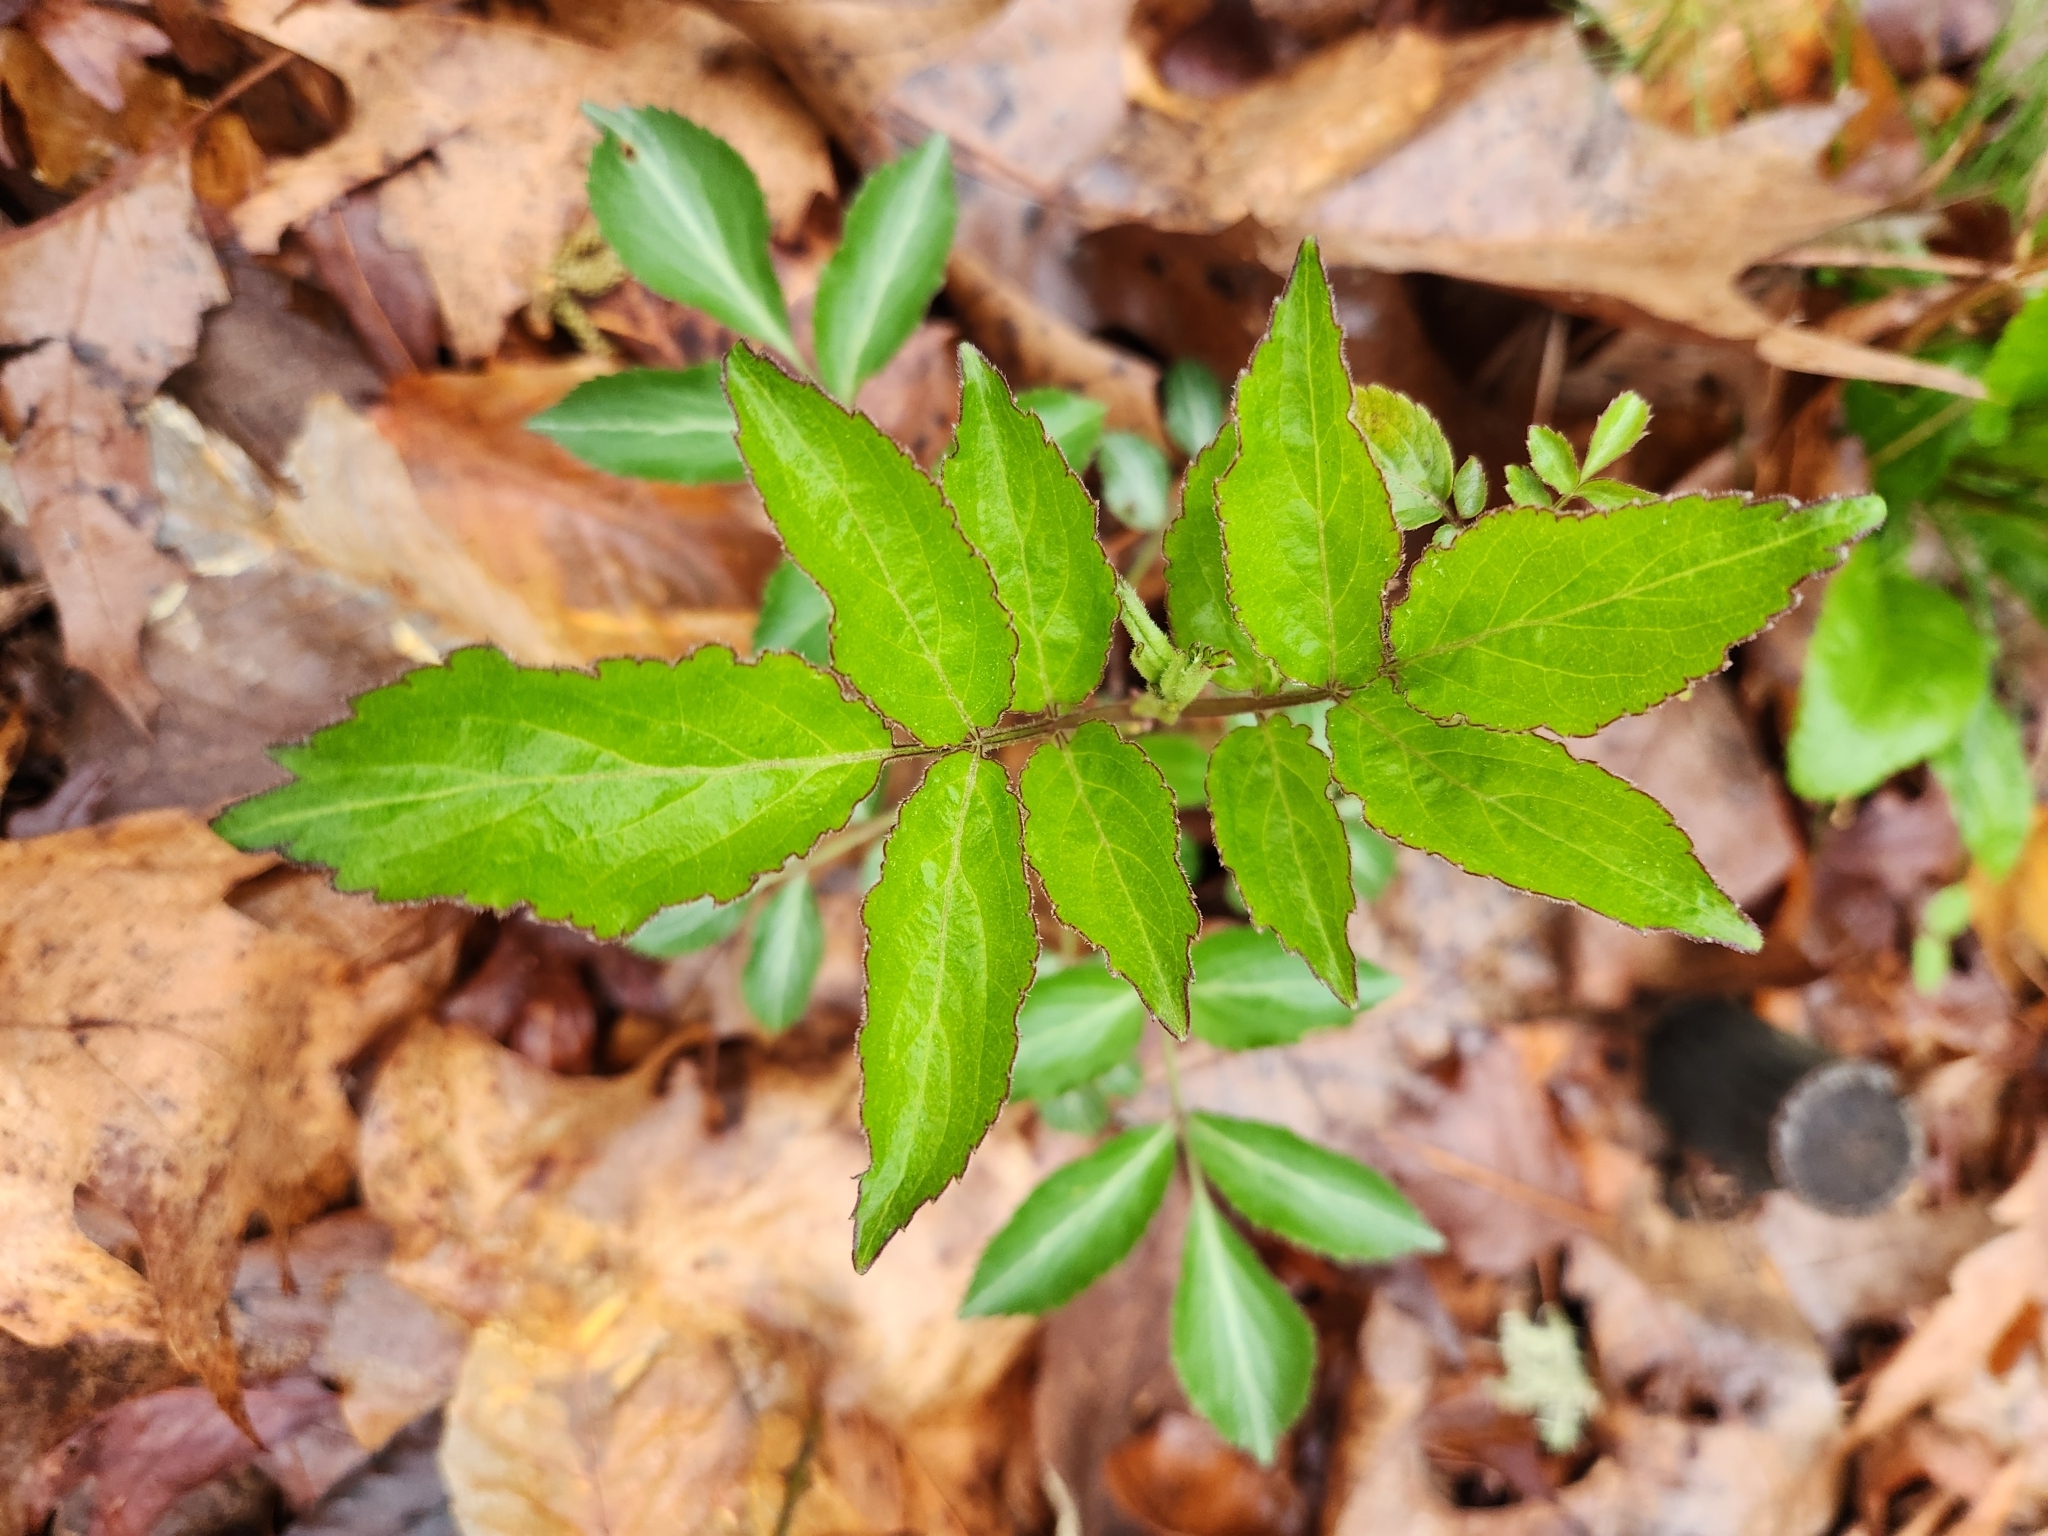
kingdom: Plantae
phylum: Tracheophyta
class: Magnoliopsida
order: Dipsacales
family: Viburnaceae
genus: Sambucus
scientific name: Sambucus canadensis
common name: American elder
